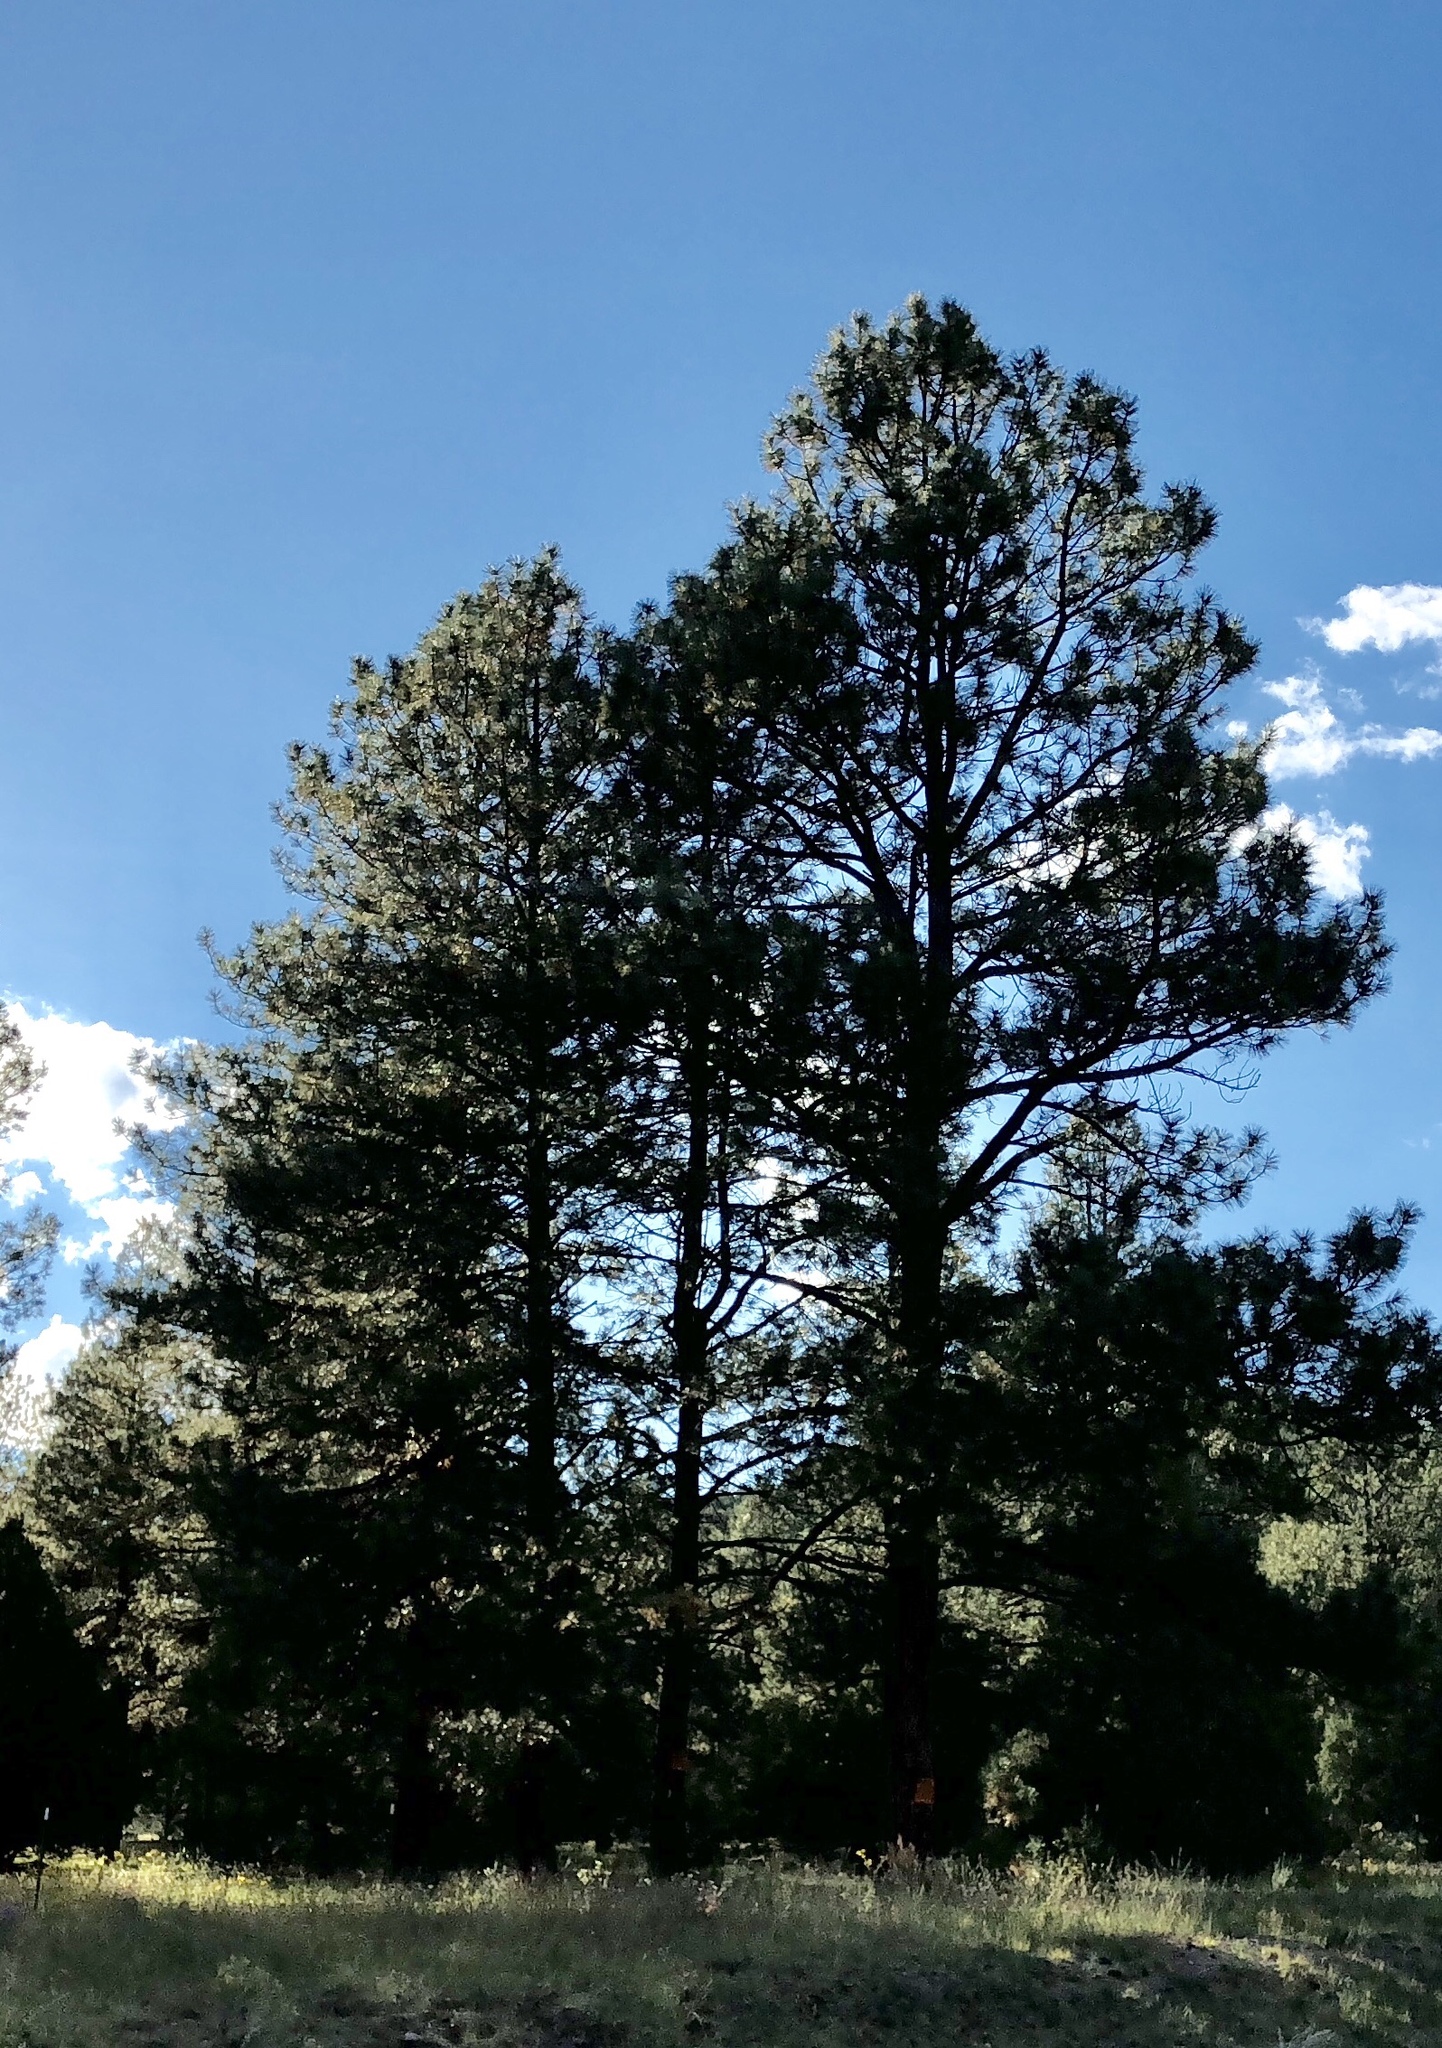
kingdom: Plantae
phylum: Tracheophyta
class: Pinopsida
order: Pinales
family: Pinaceae
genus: Pinus
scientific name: Pinus ponderosa
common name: Western yellow-pine
